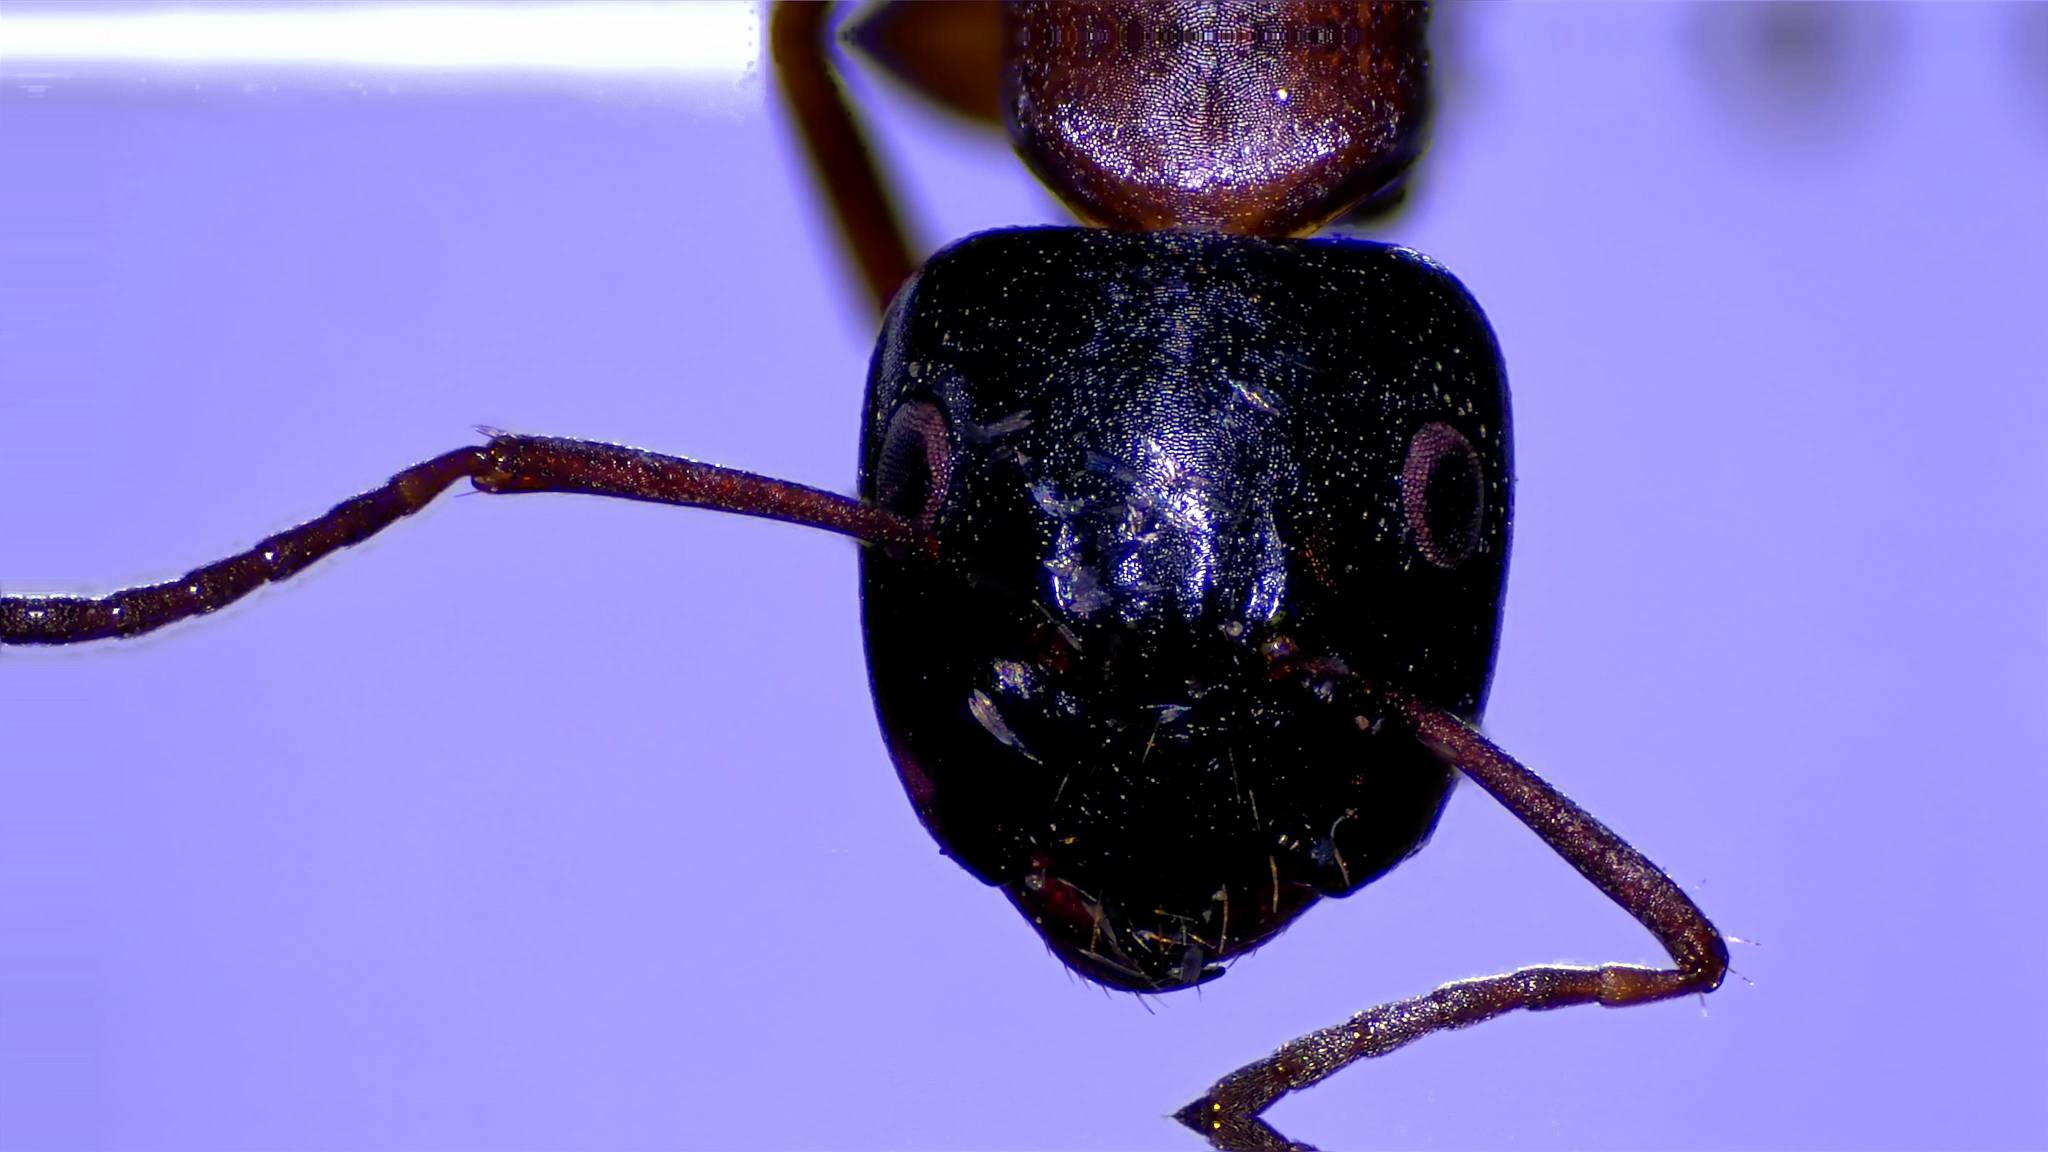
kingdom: Animalia
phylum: Arthropoda
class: Insecta
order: Hymenoptera
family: Formicidae
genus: Camponotus
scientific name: Camponotus nearcticus
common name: Smaller carpenter ant
